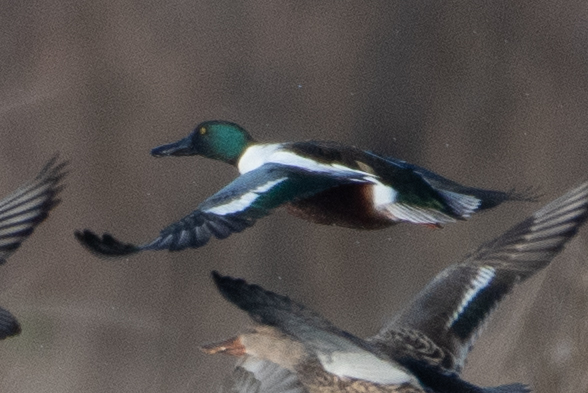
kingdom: Animalia
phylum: Chordata
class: Aves
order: Anseriformes
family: Anatidae
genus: Spatula
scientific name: Spatula clypeata
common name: Northern shoveler
